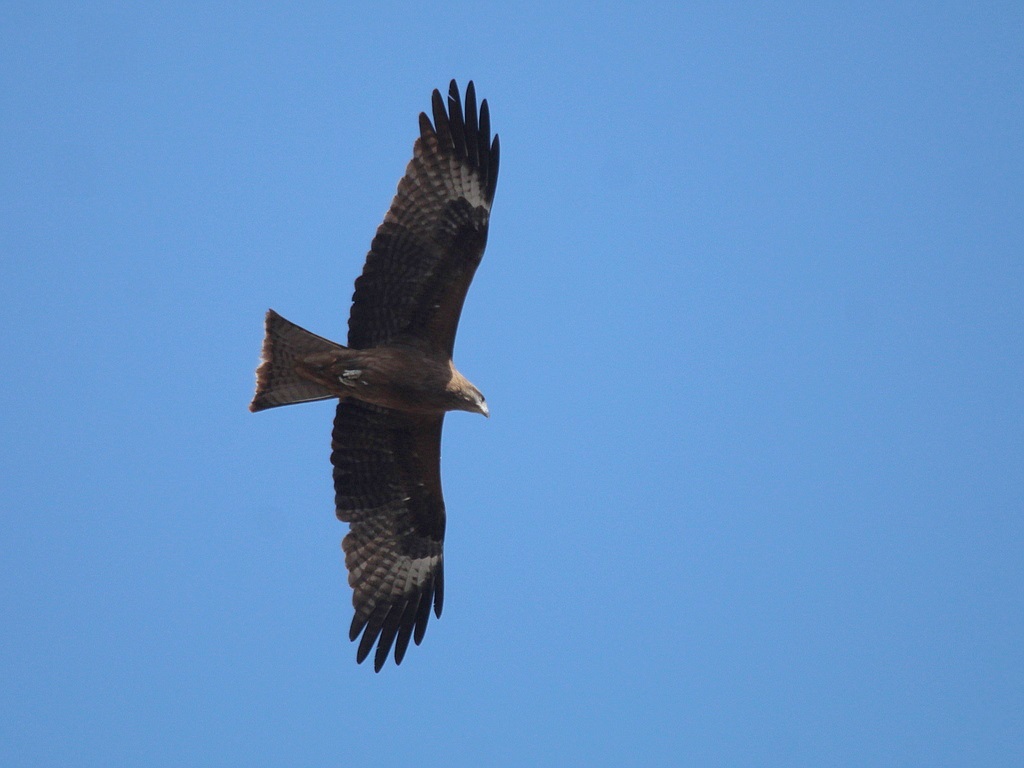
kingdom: Animalia
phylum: Chordata
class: Aves
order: Accipitriformes
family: Accipitridae
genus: Milvus
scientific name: Milvus migrans
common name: Black kite
